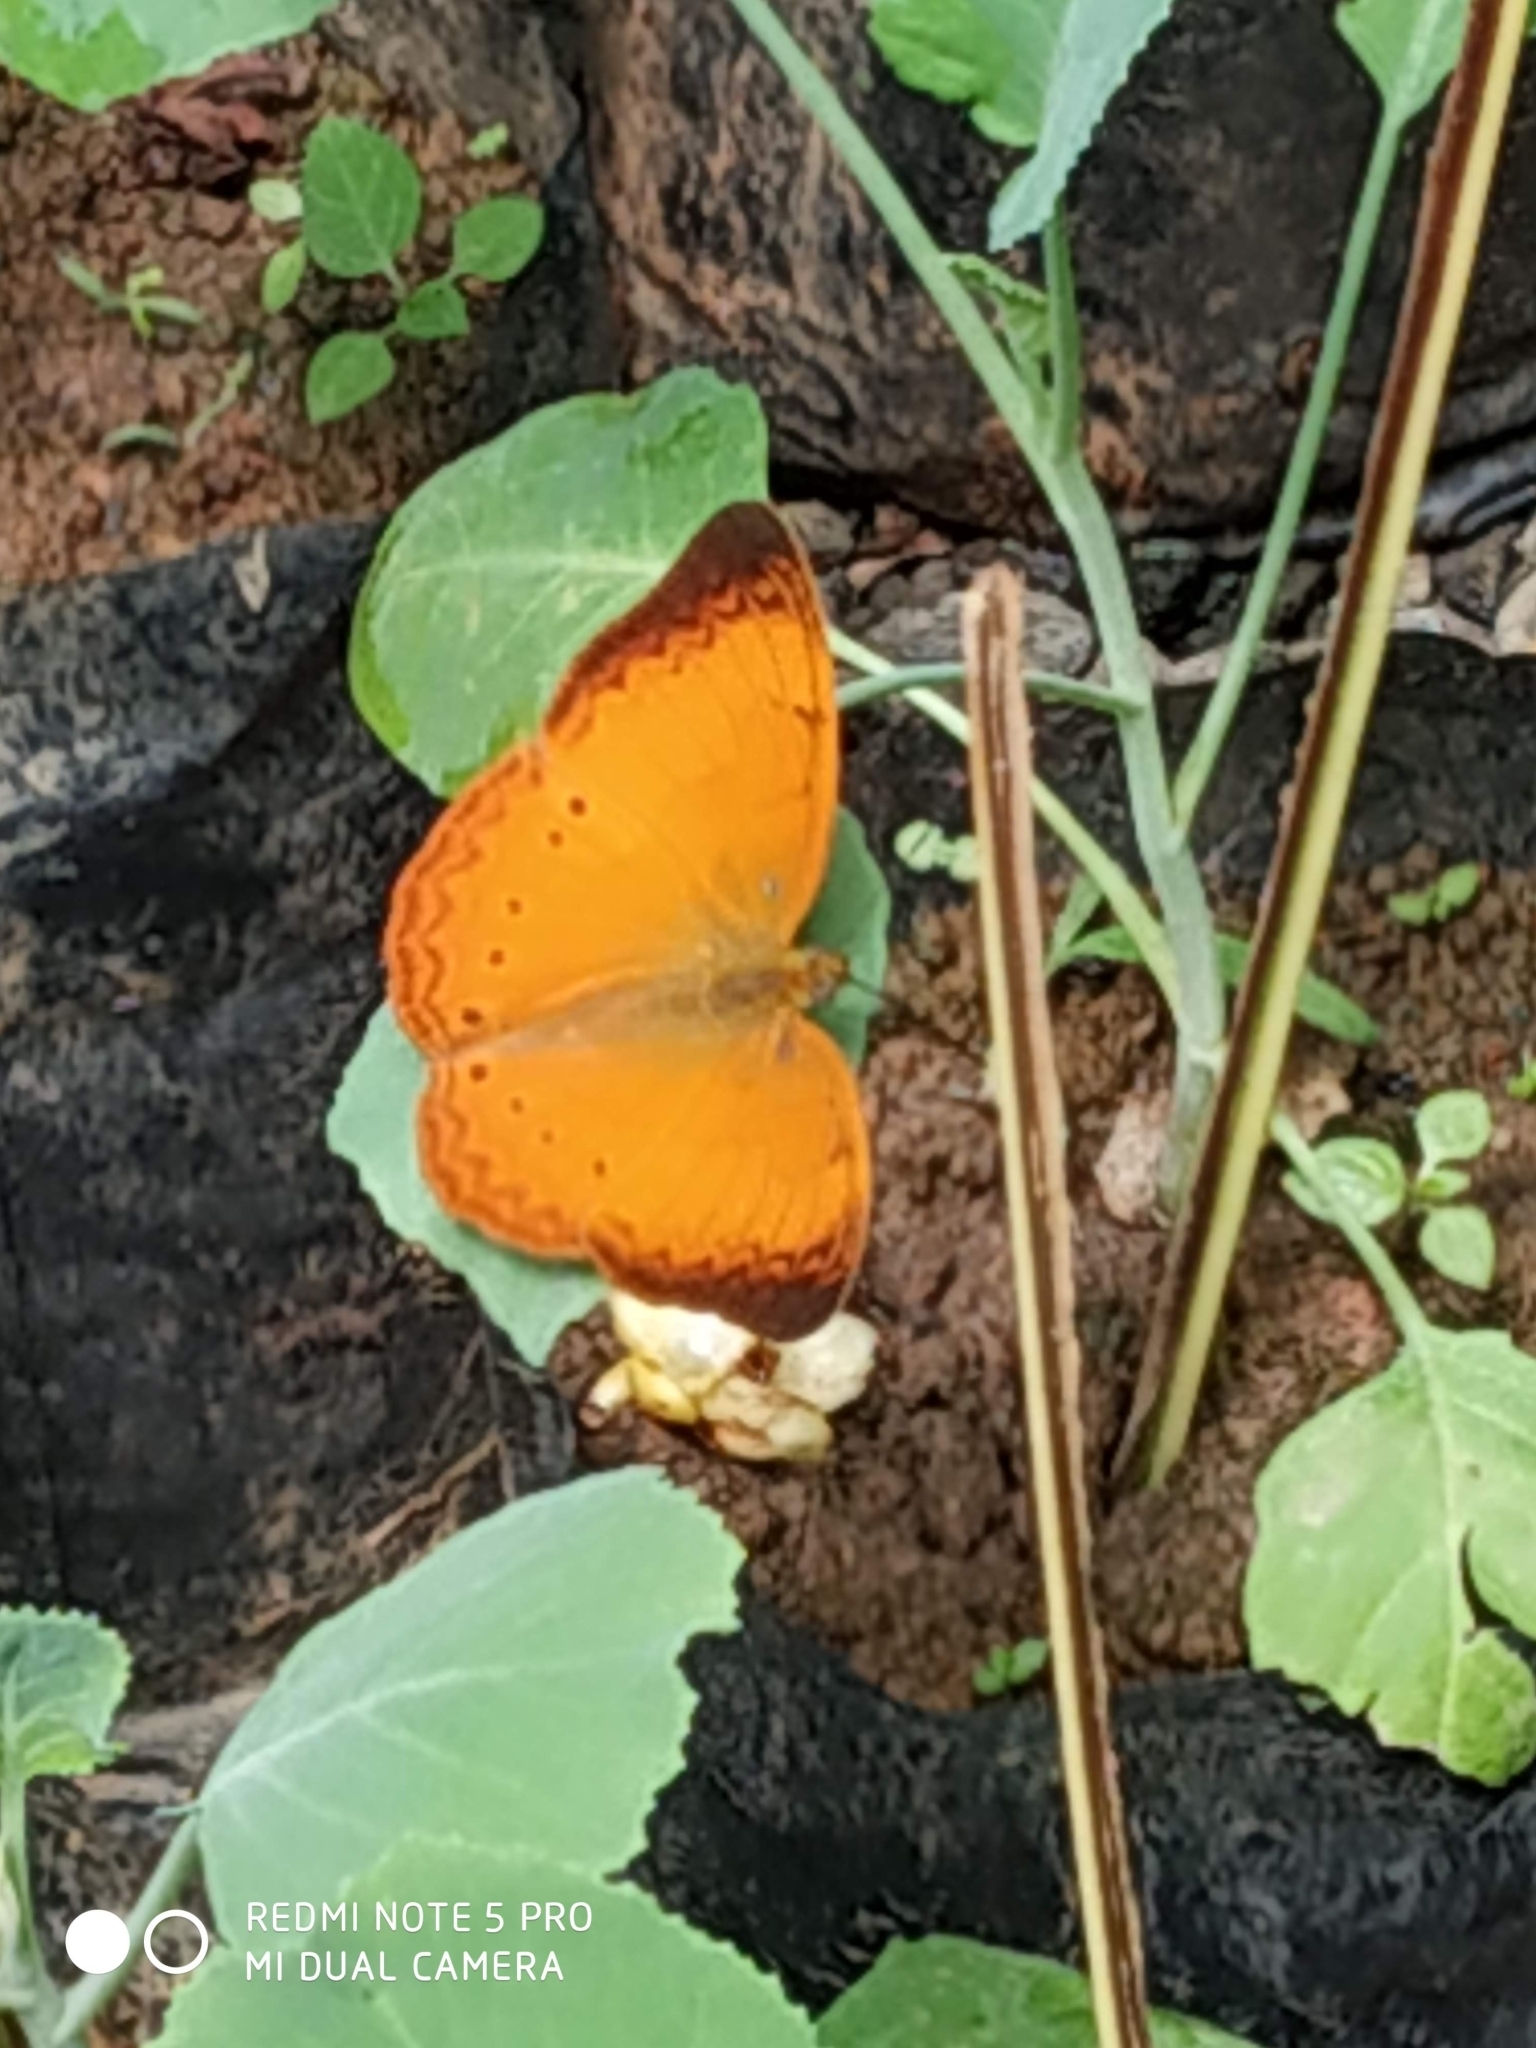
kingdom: Animalia
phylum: Arthropoda
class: Insecta
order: Lepidoptera
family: Nymphalidae
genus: Cirrochroa
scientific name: Cirrochroa thais
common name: Tamil yeoman
